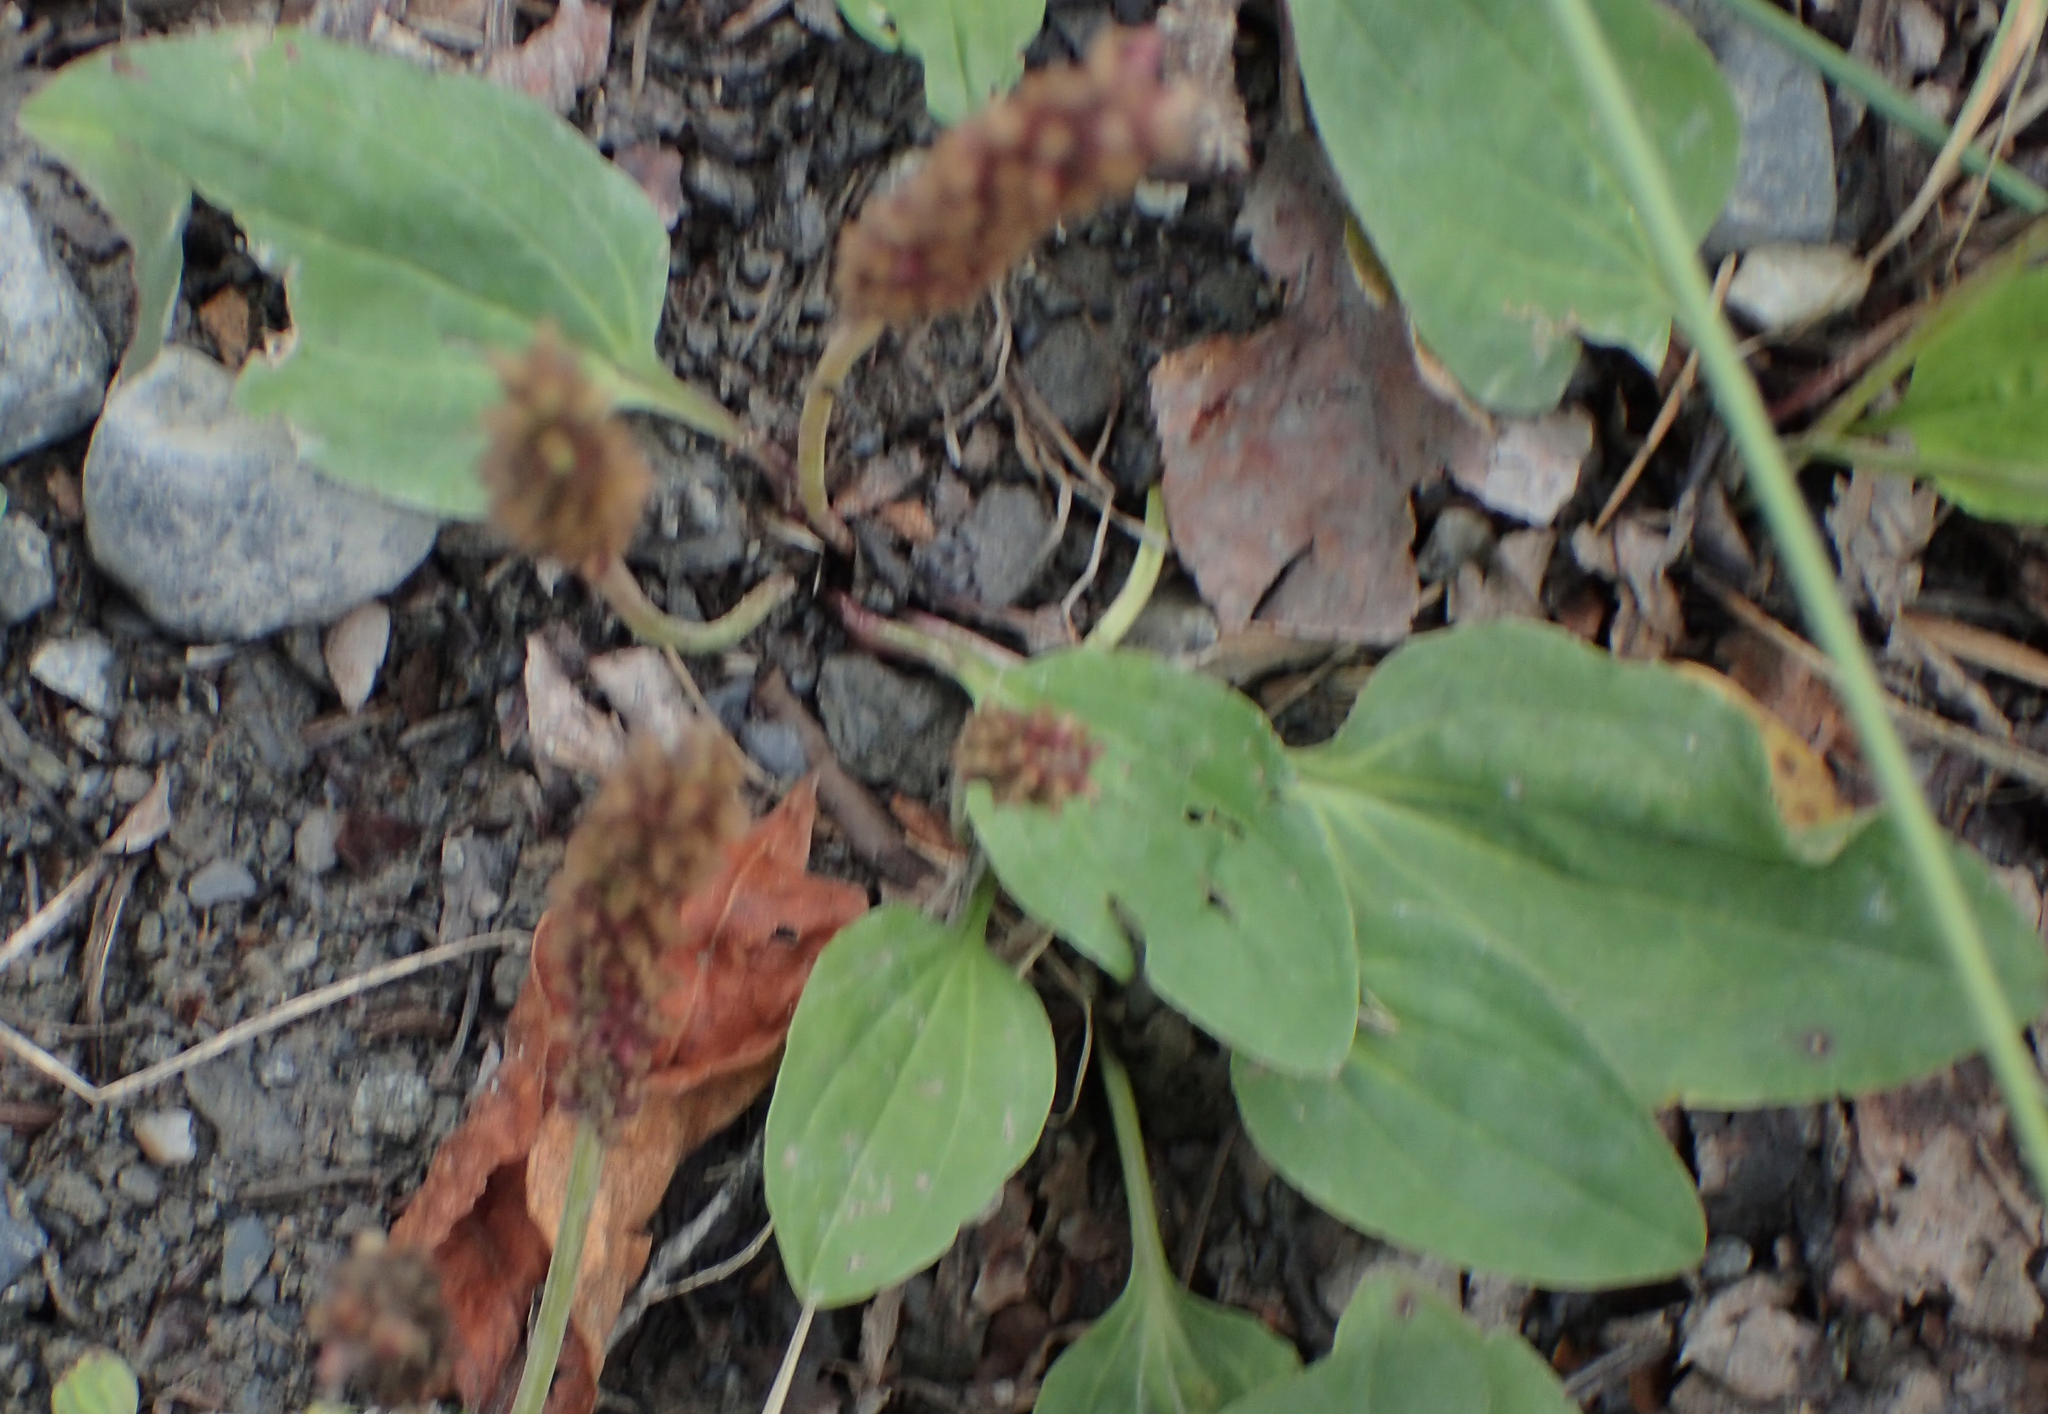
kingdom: Plantae
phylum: Tracheophyta
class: Magnoliopsida
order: Lamiales
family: Plantaginaceae
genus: Plantago
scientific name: Plantago major
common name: Common plantain
